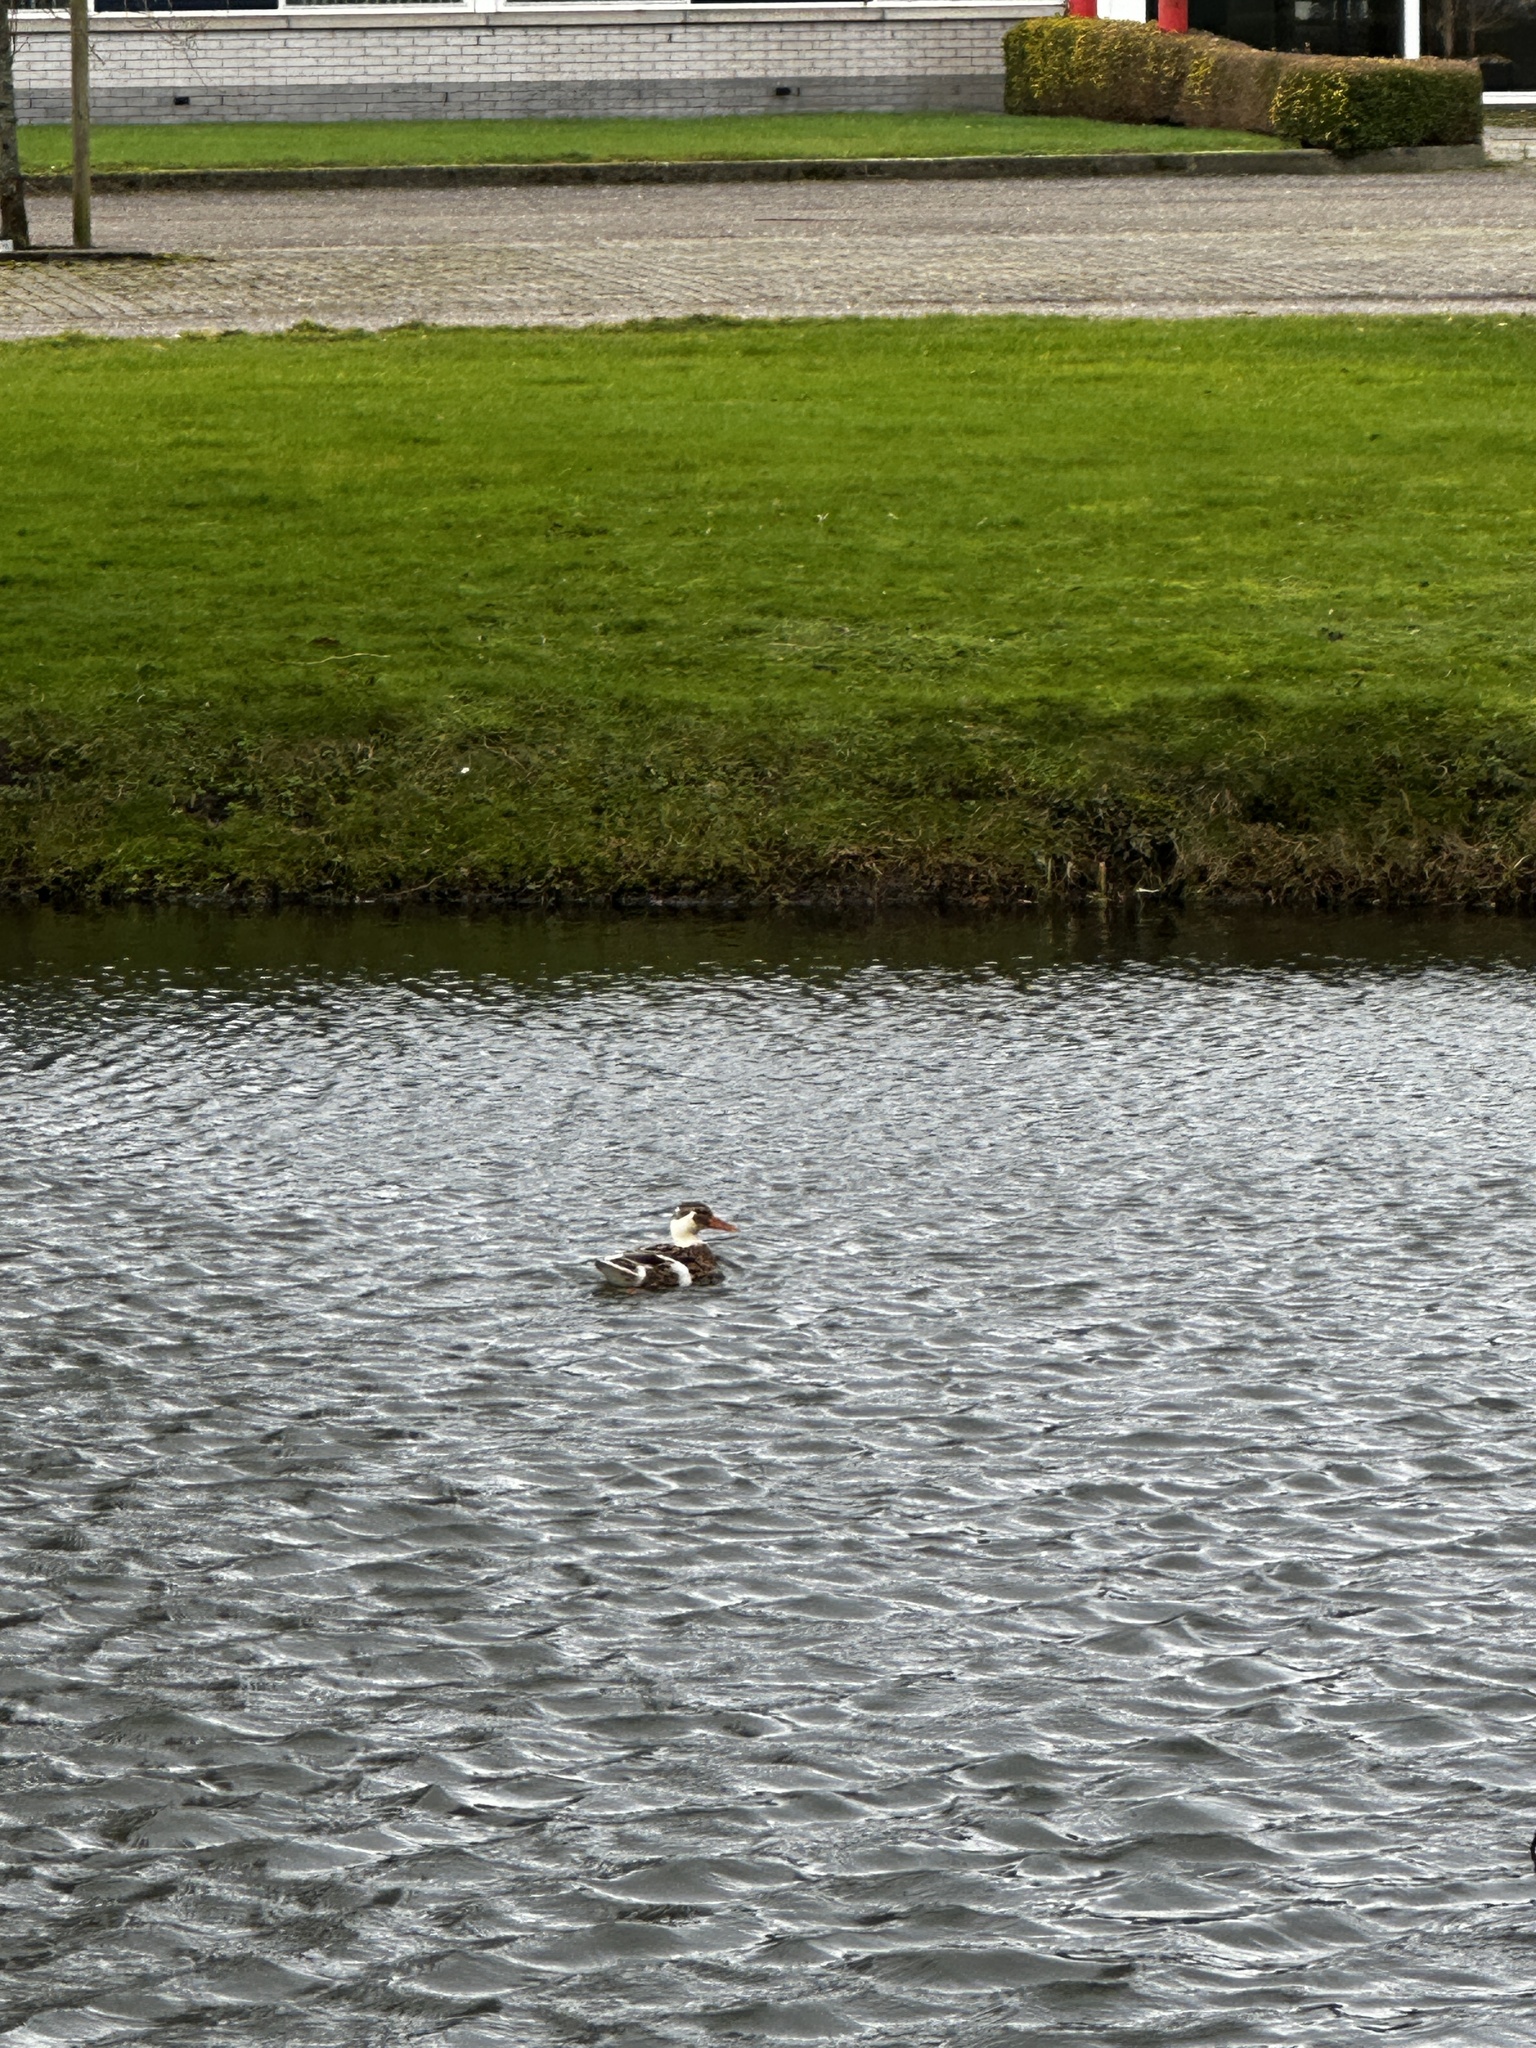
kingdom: Animalia
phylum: Chordata
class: Aves
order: Anseriformes
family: Anatidae
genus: Anas
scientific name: Anas platyrhynchos
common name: Mallard
